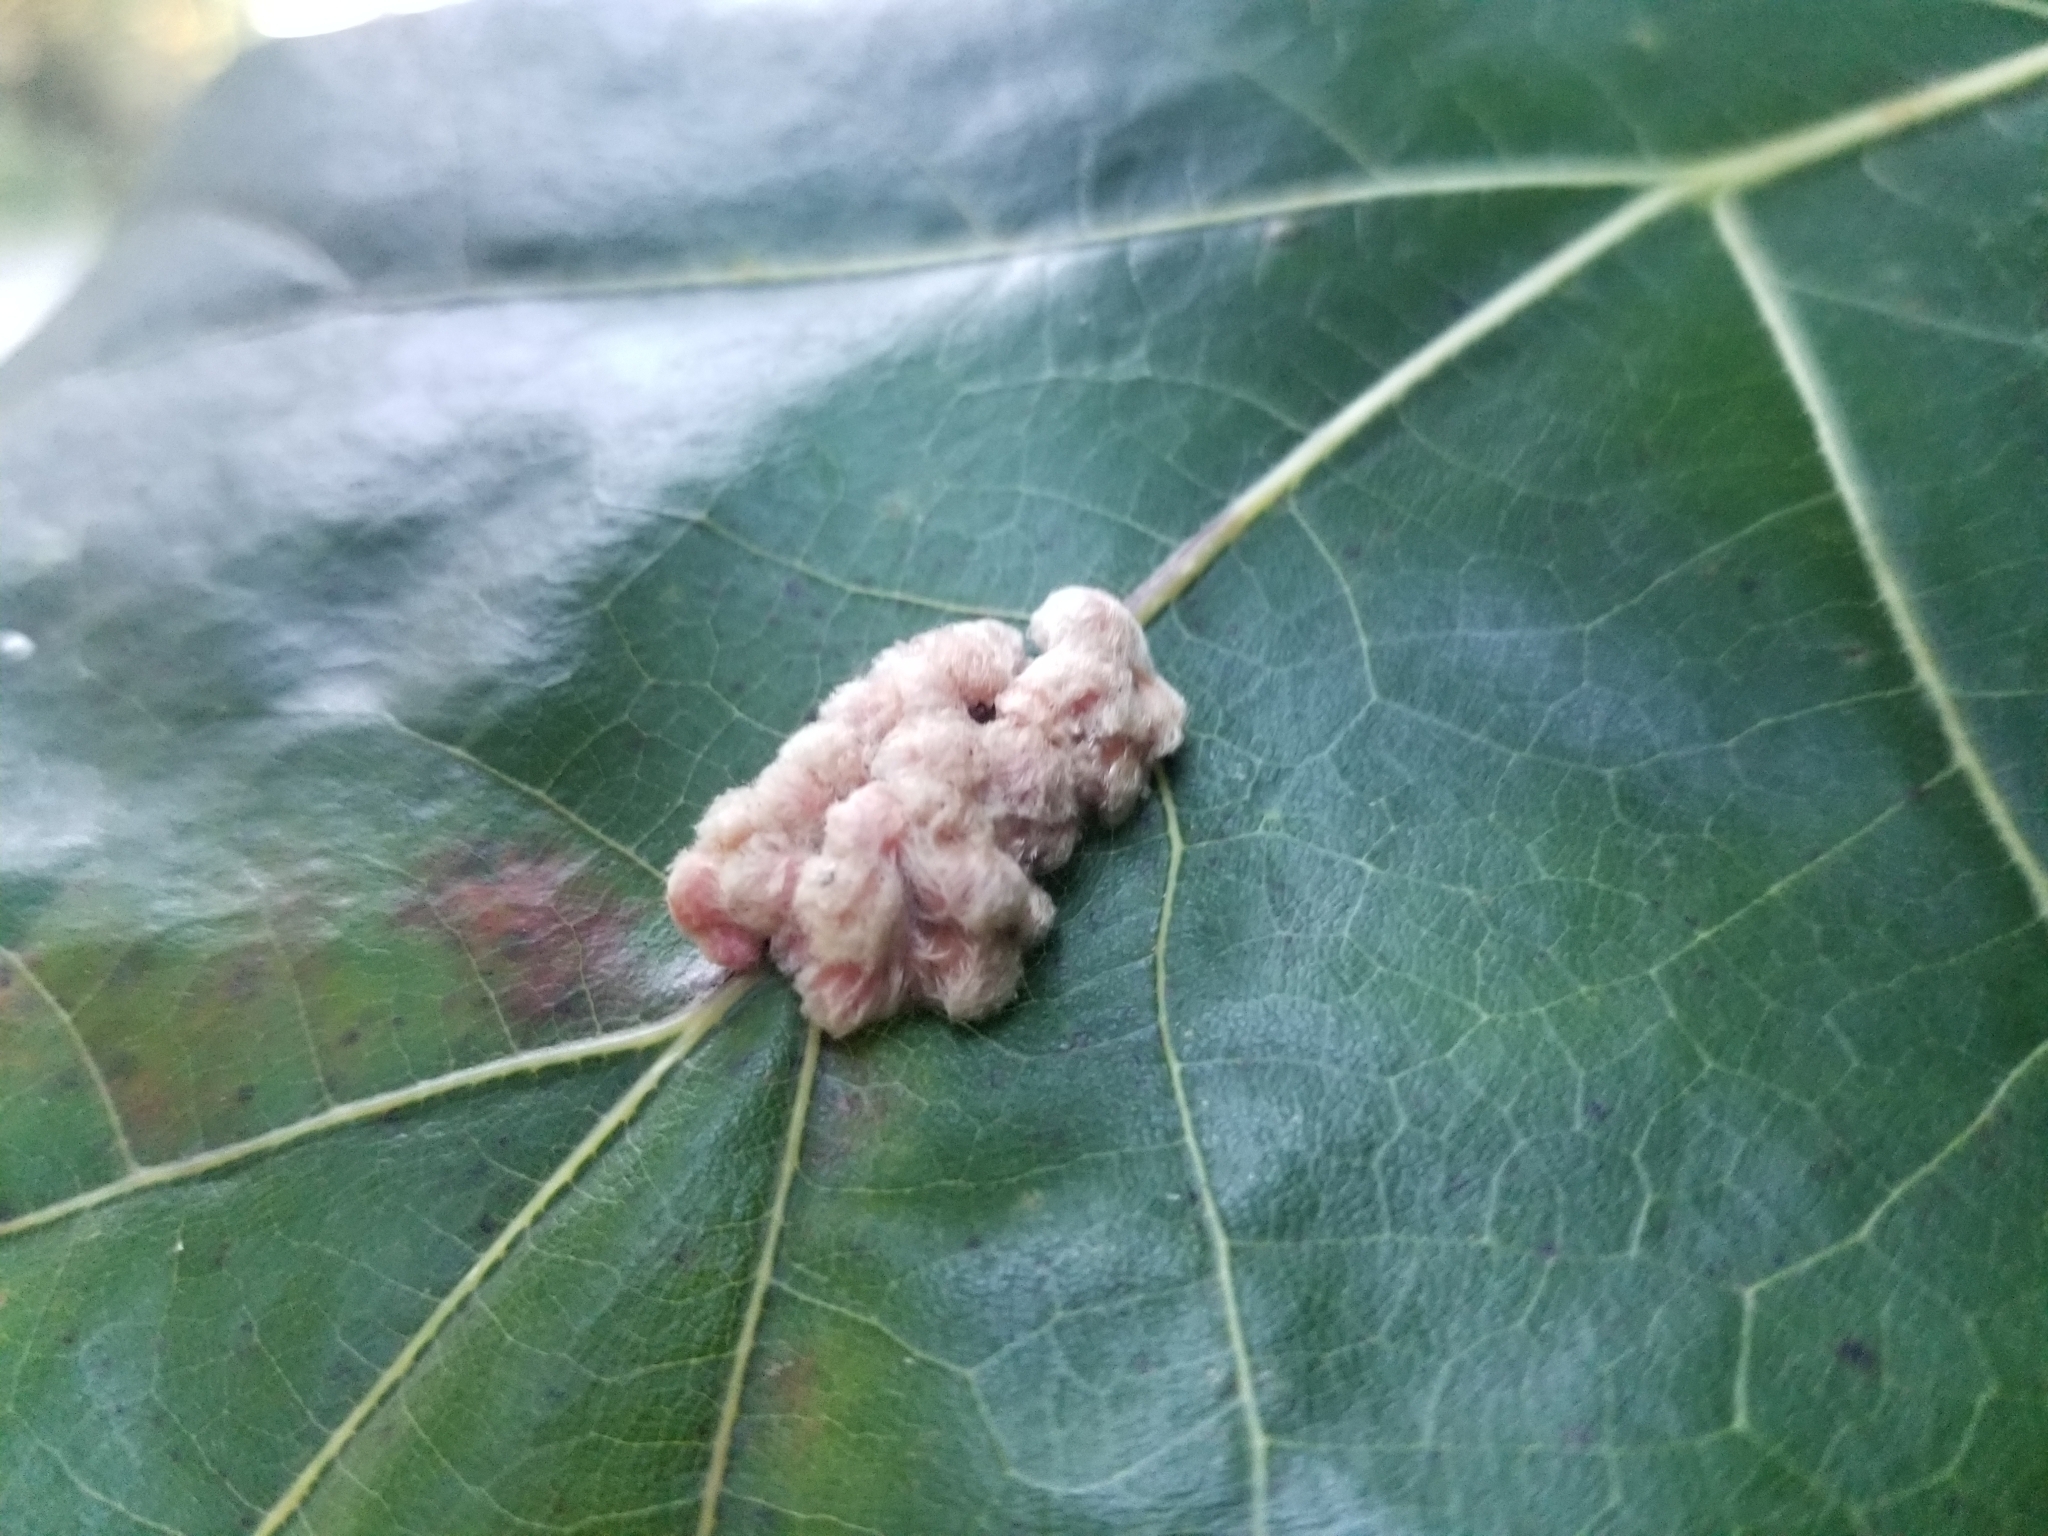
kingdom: Animalia
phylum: Arthropoda
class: Insecta
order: Hymenoptera
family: Cynipidae
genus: Callirhytis
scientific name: Callirhytis
